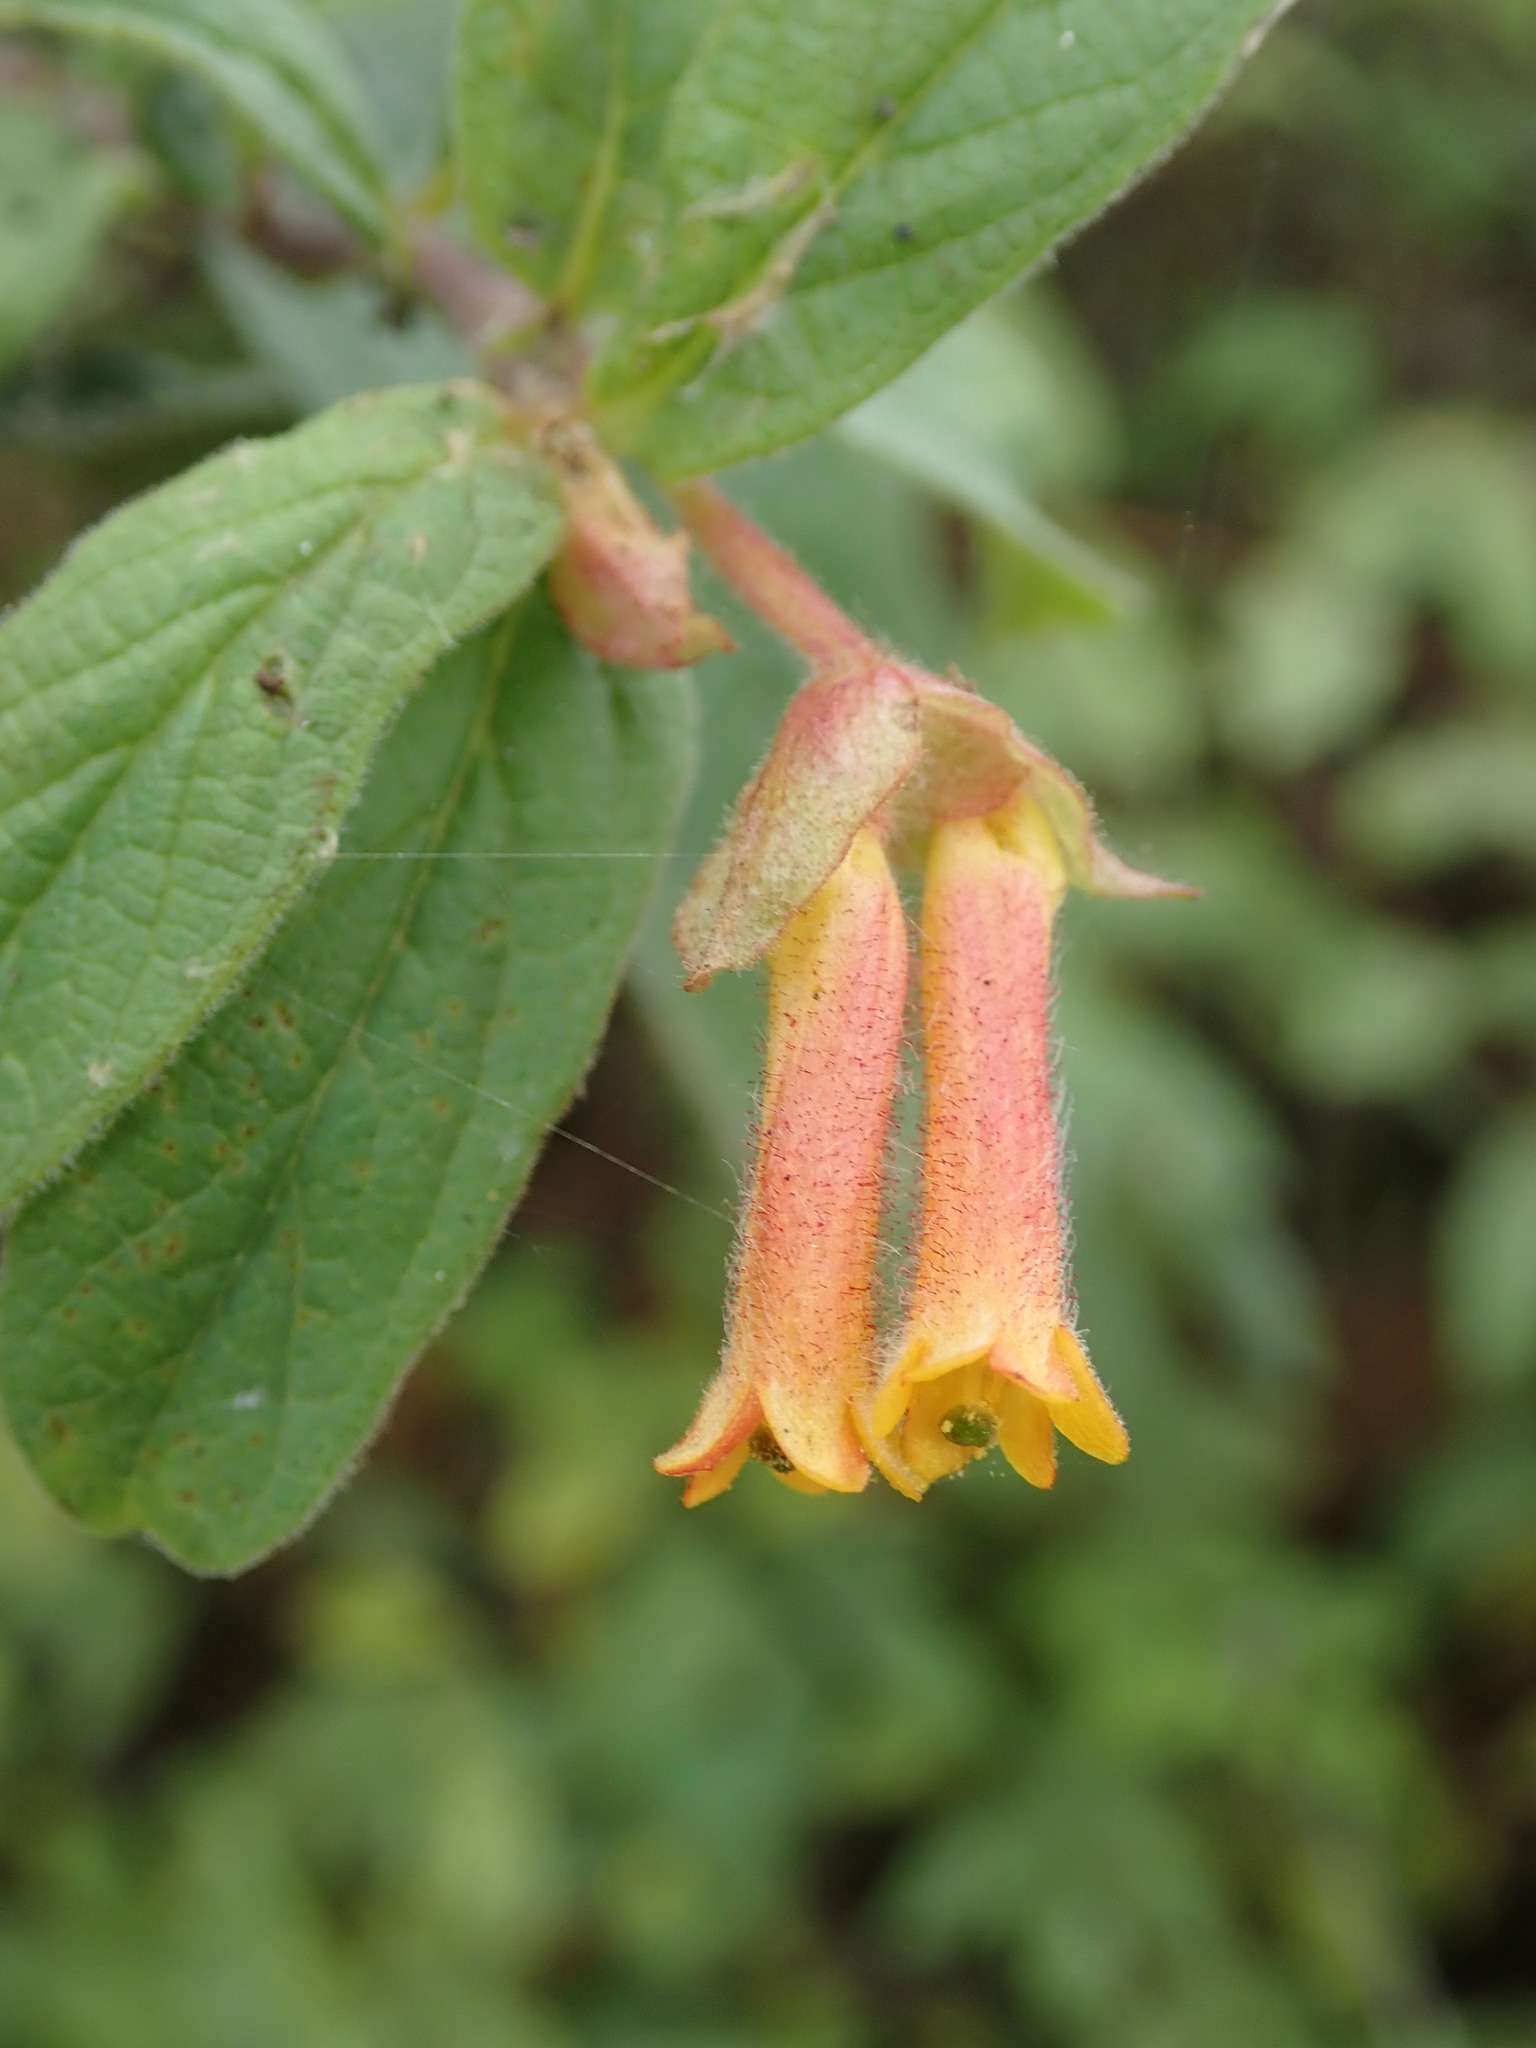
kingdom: Plantae
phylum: Tracheophyta
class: Magnoliopsida
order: Dipsacales
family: Caprifoliaceae
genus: Lonicera
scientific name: Lonicera involucrata
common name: Californian honeysuckle
